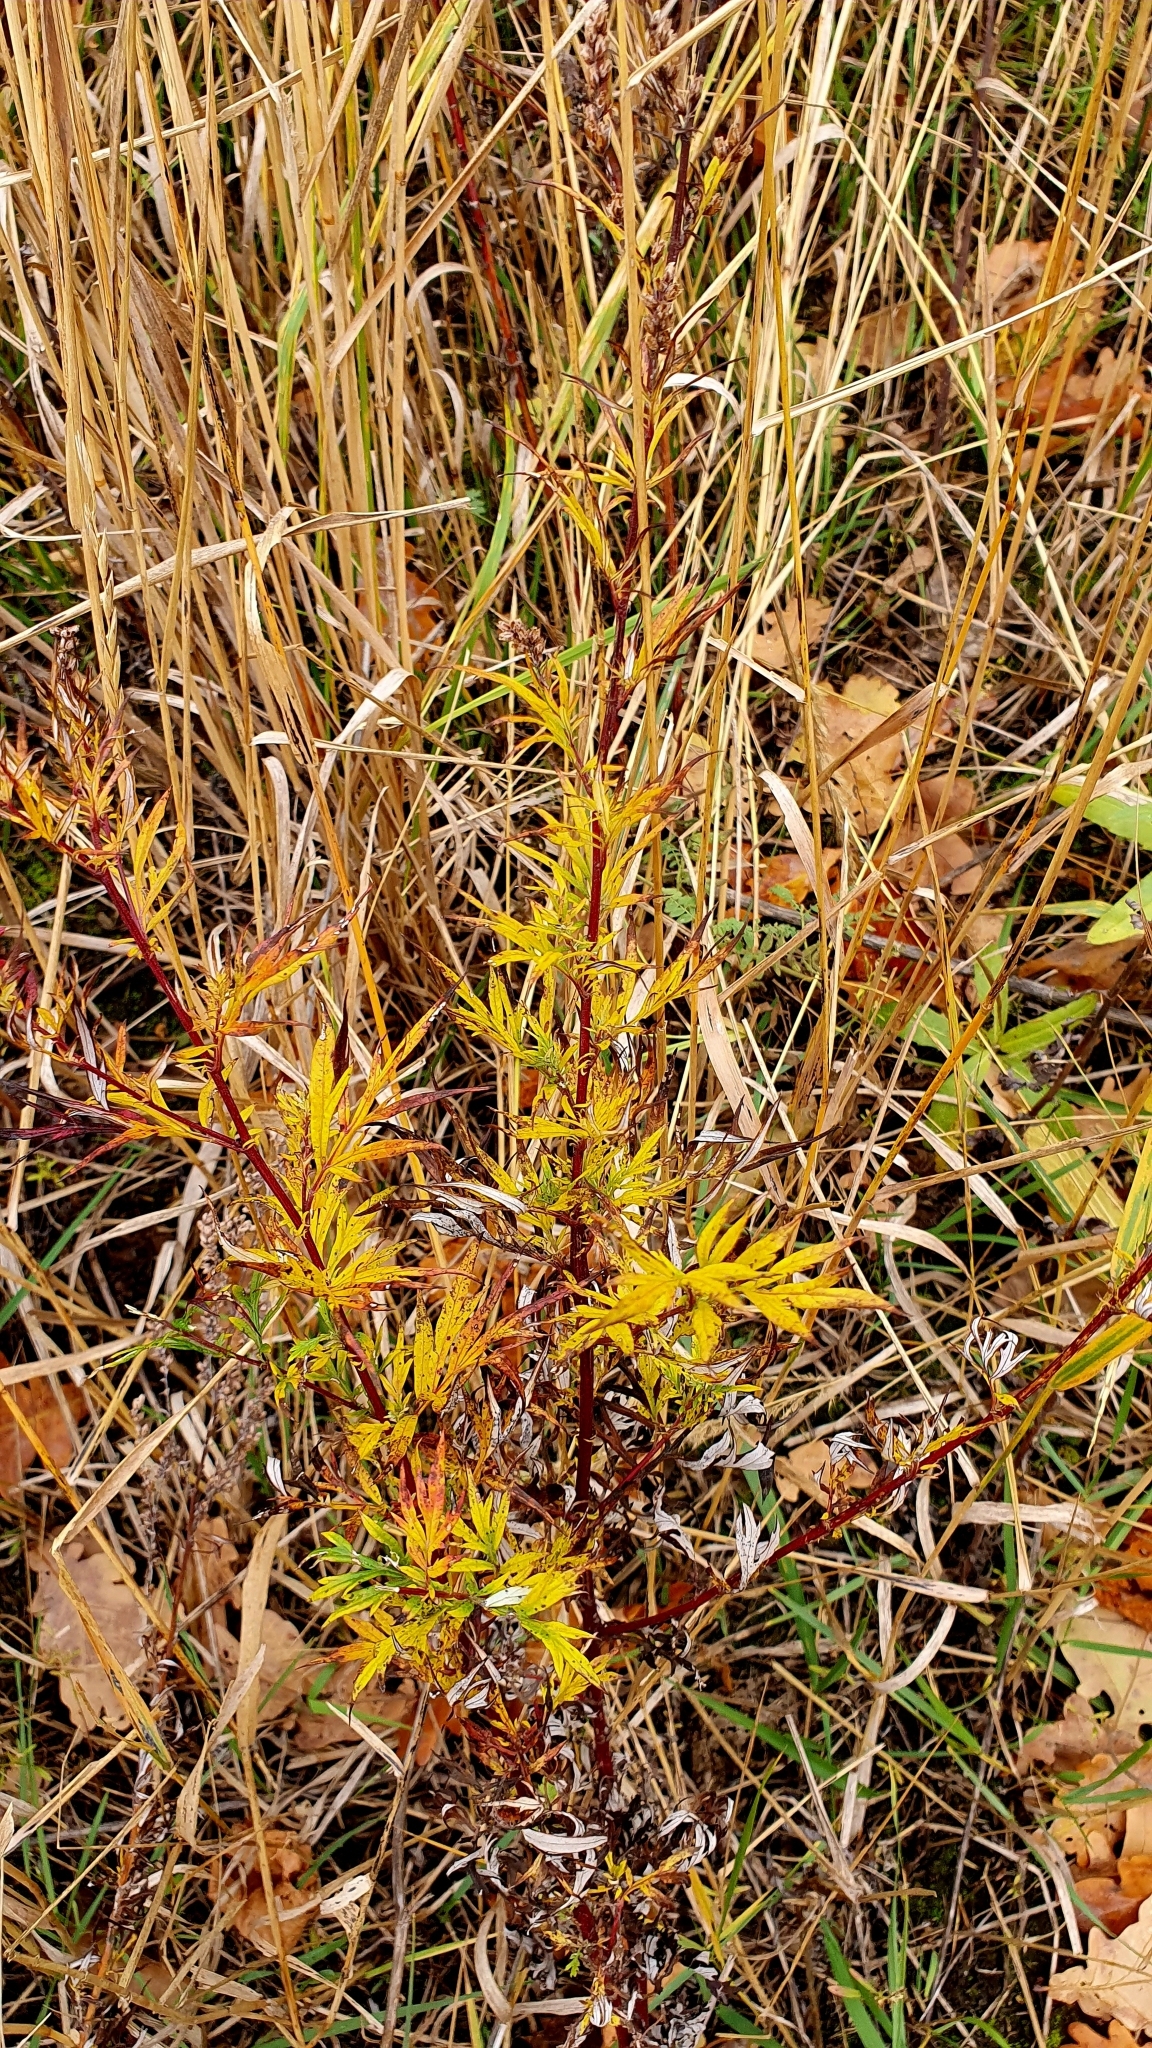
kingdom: Plantae
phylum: Tracheophyta
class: Magnoliopsida
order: Asterales
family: Asteraceae
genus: Artemisia
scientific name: Artemisia vulgaris
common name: Mugwort
